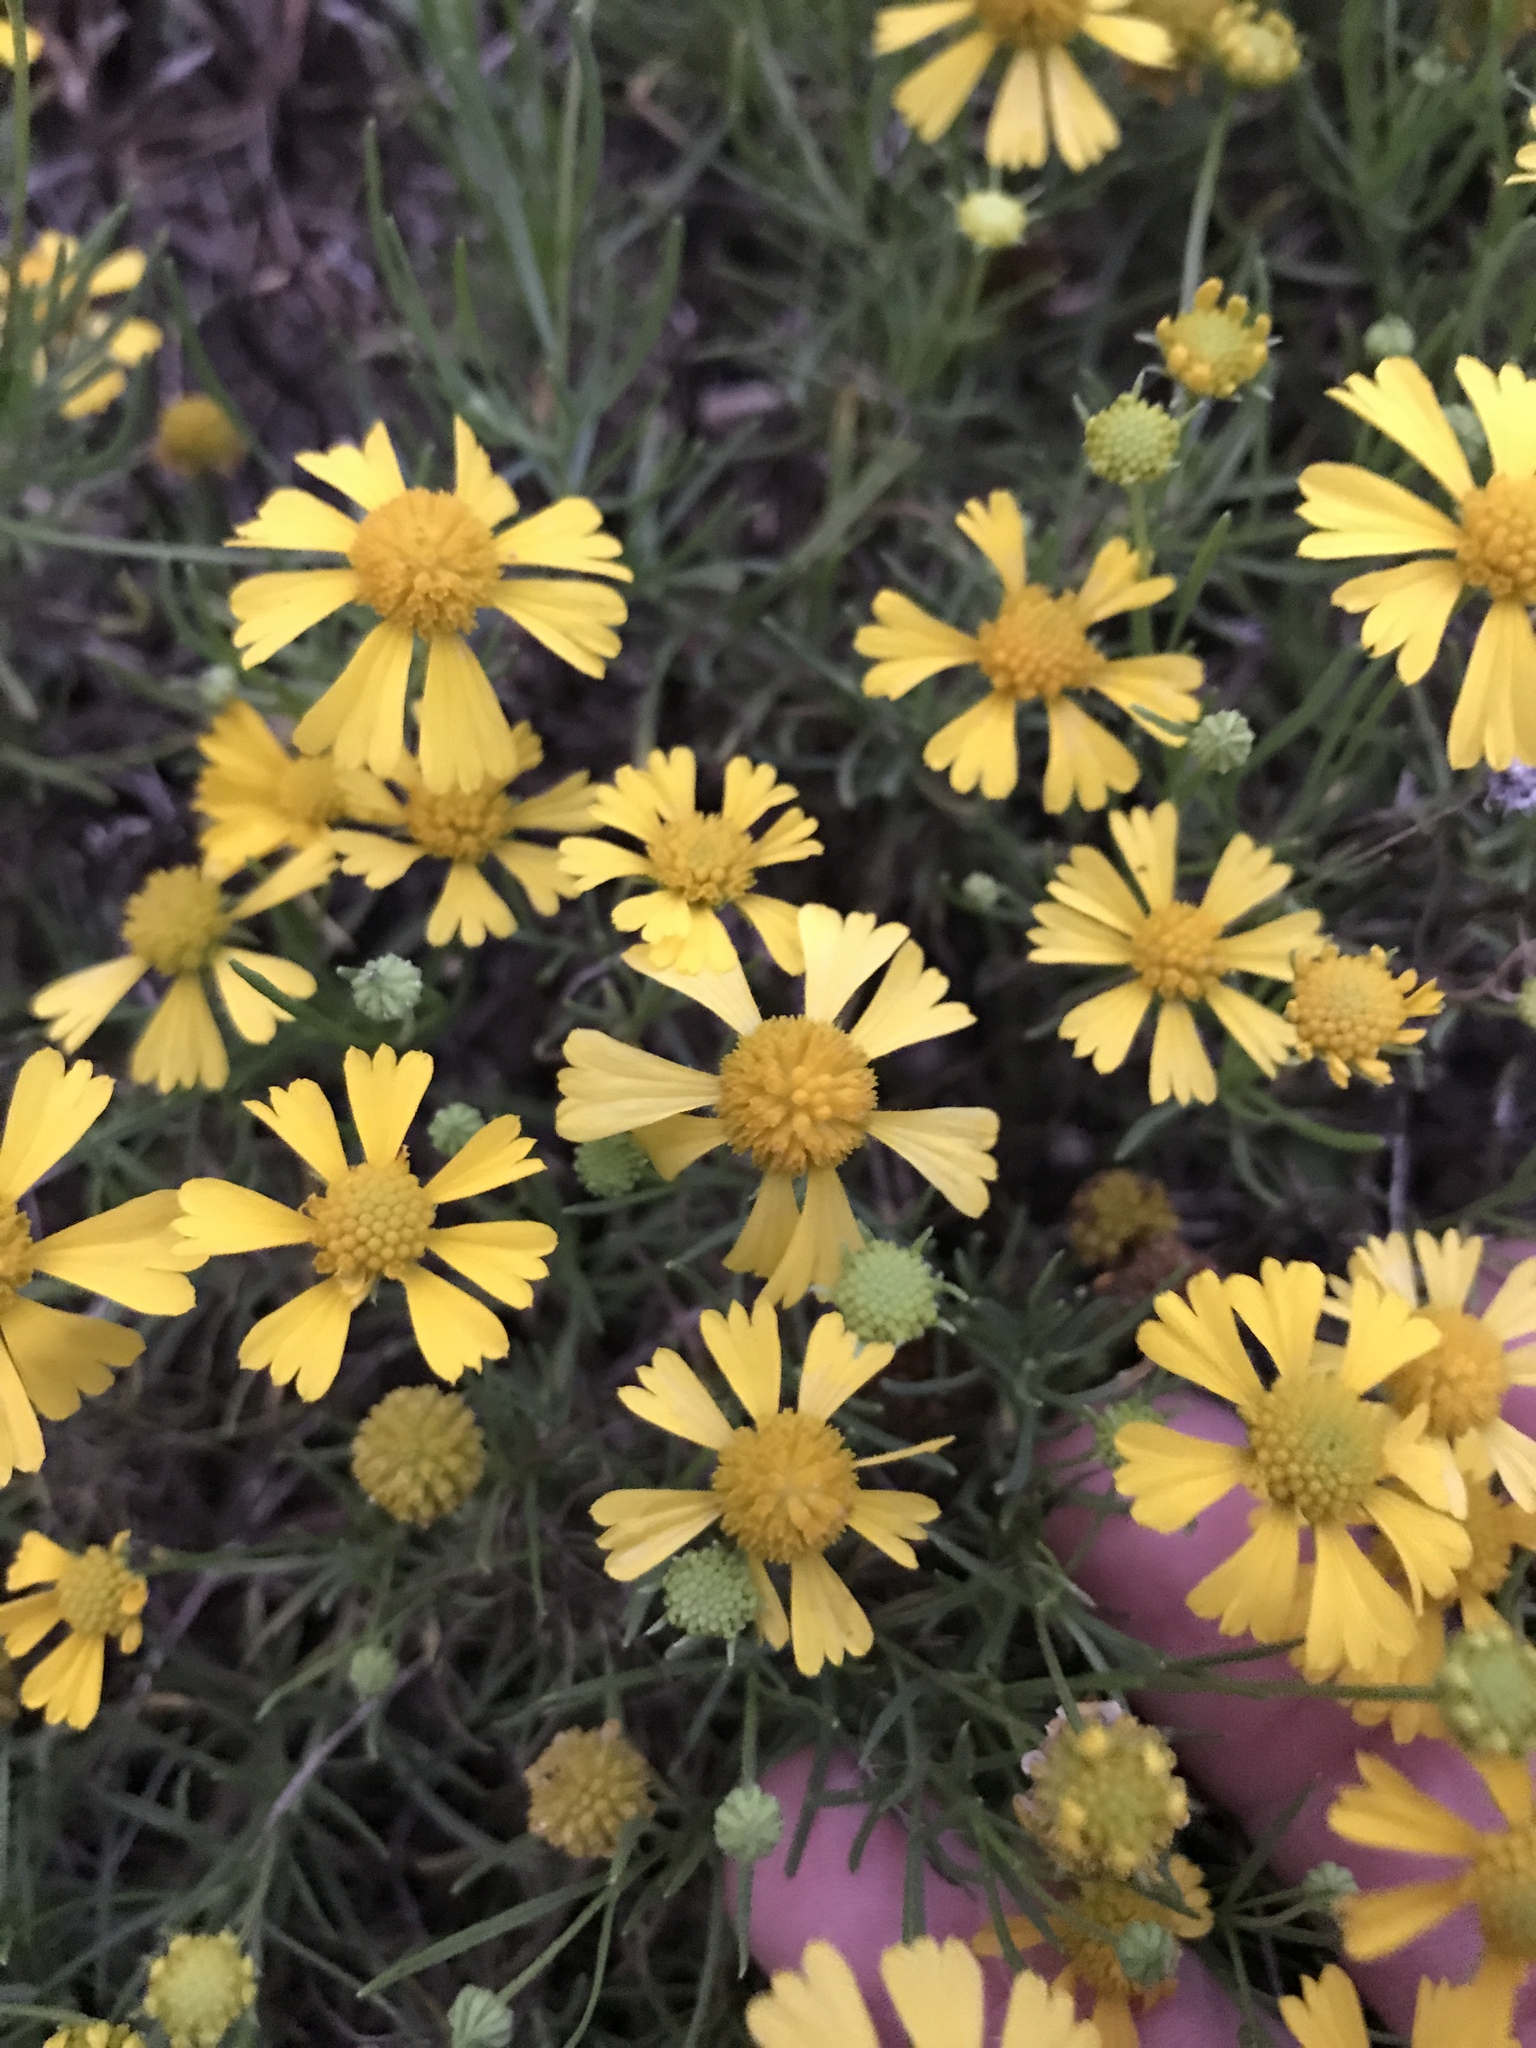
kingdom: Plantae
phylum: Tracheophyta
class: Magnoliopsida
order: Asterales
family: Asteraceae
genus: Helenium
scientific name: Helenium amarum
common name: Bitter sneezeweed
